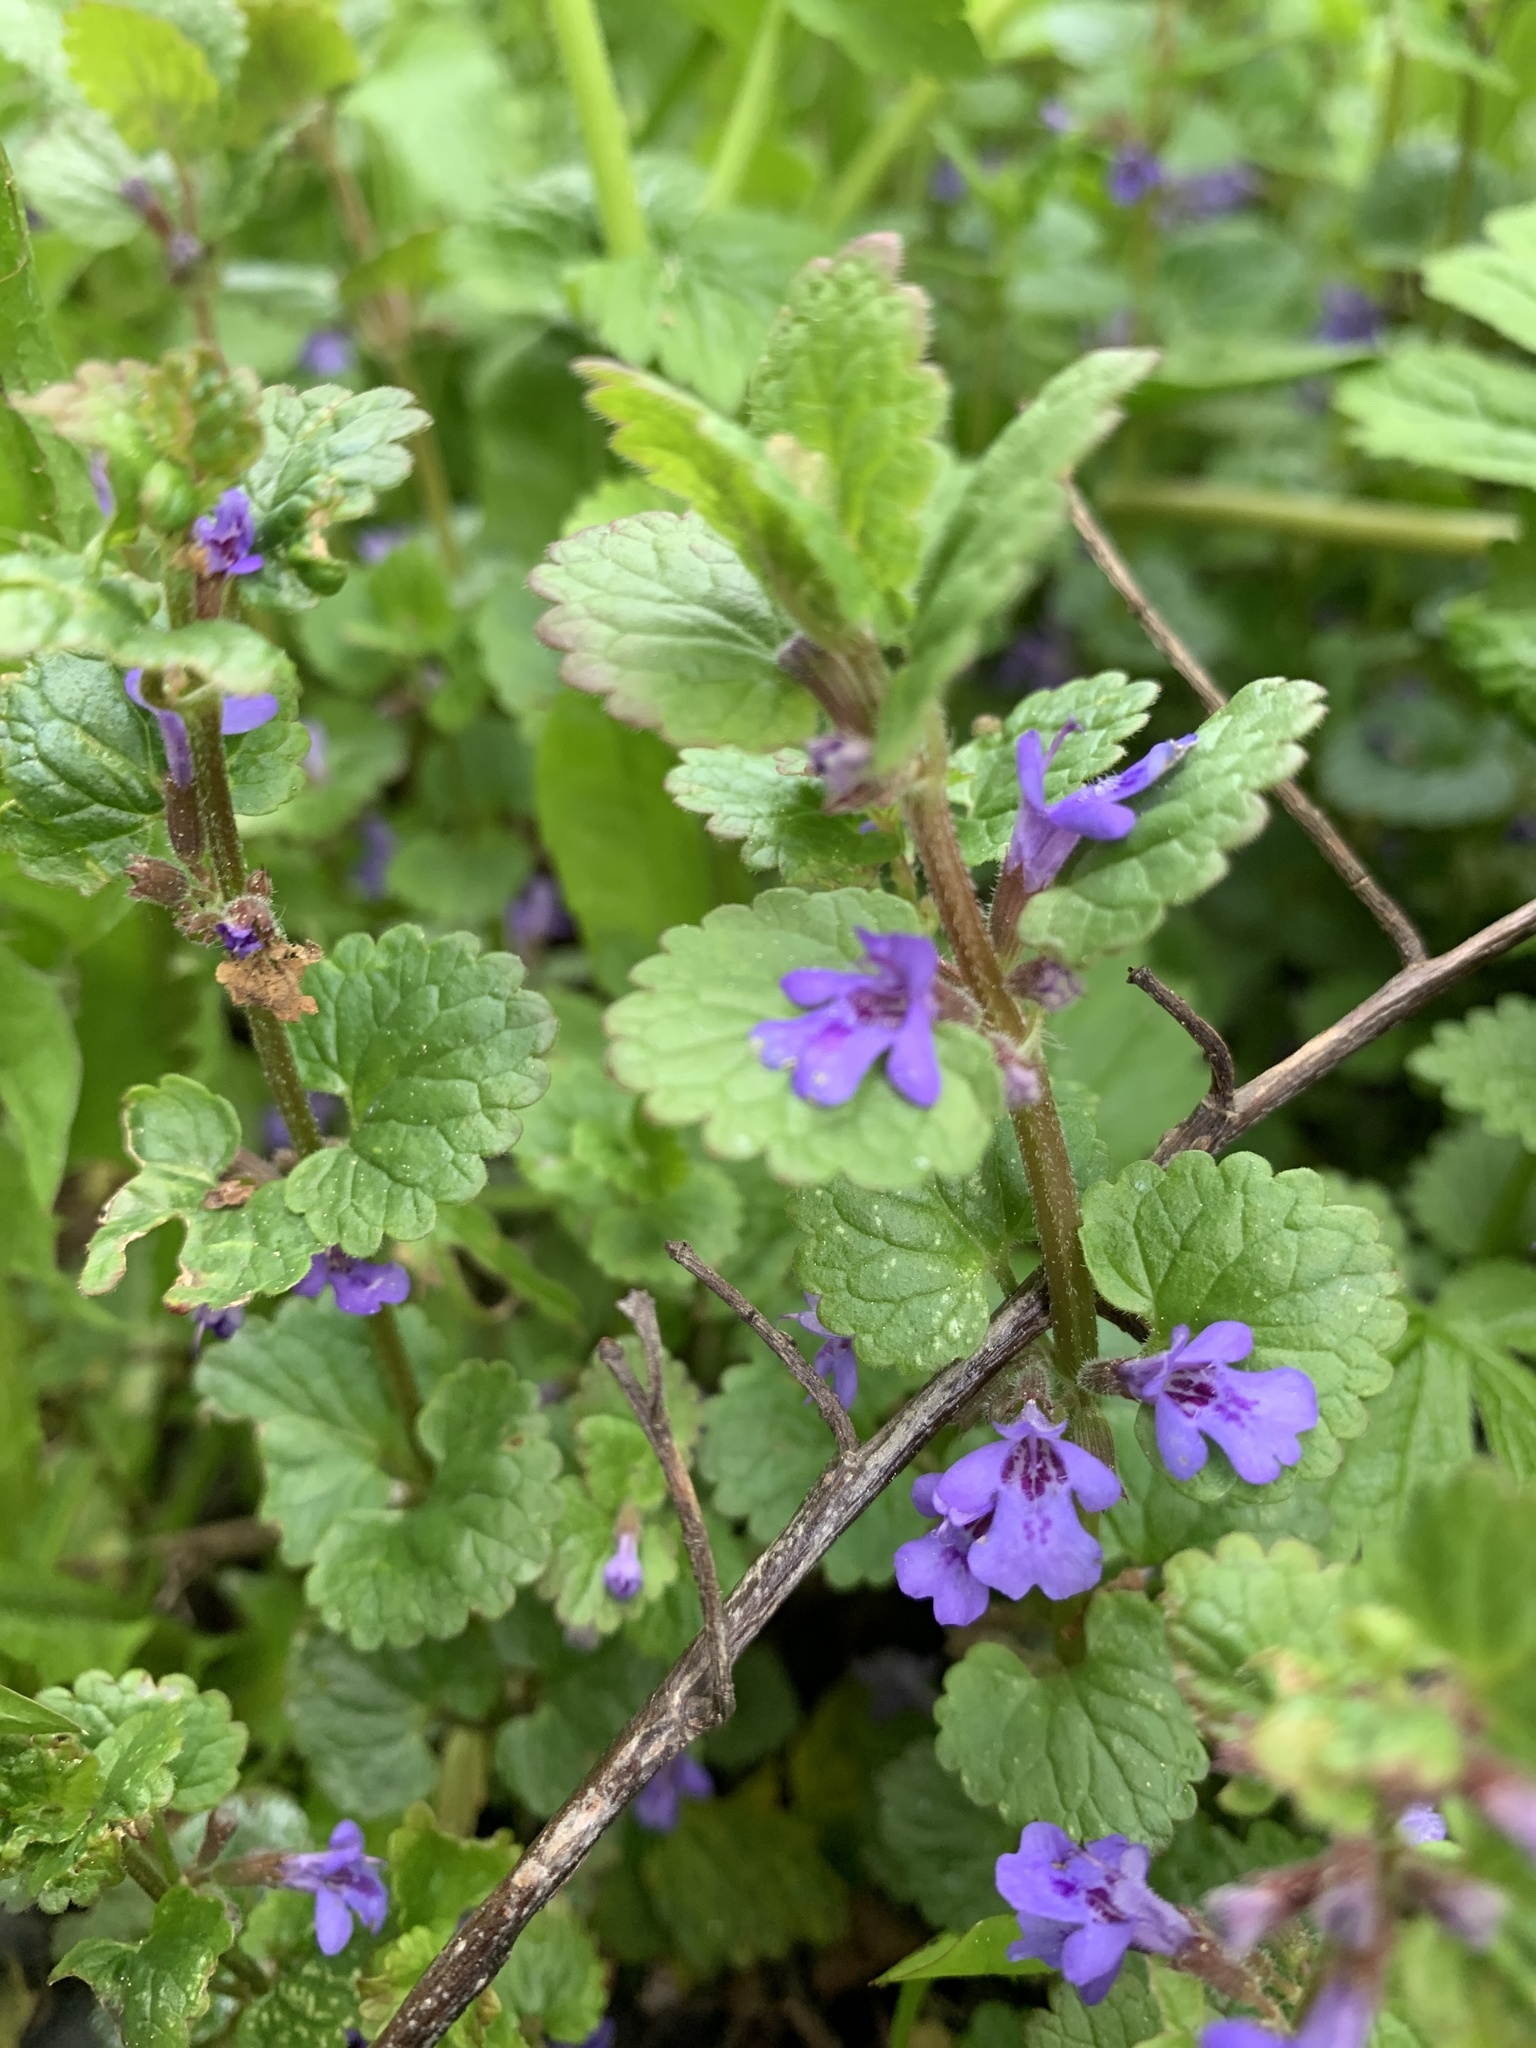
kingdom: Plantae
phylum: Tracheophyta
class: Magnoliopsida
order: Lamiales
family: Lamiaceae
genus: Glechoma
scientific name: Glechoma hederacea
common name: Ground ivy
